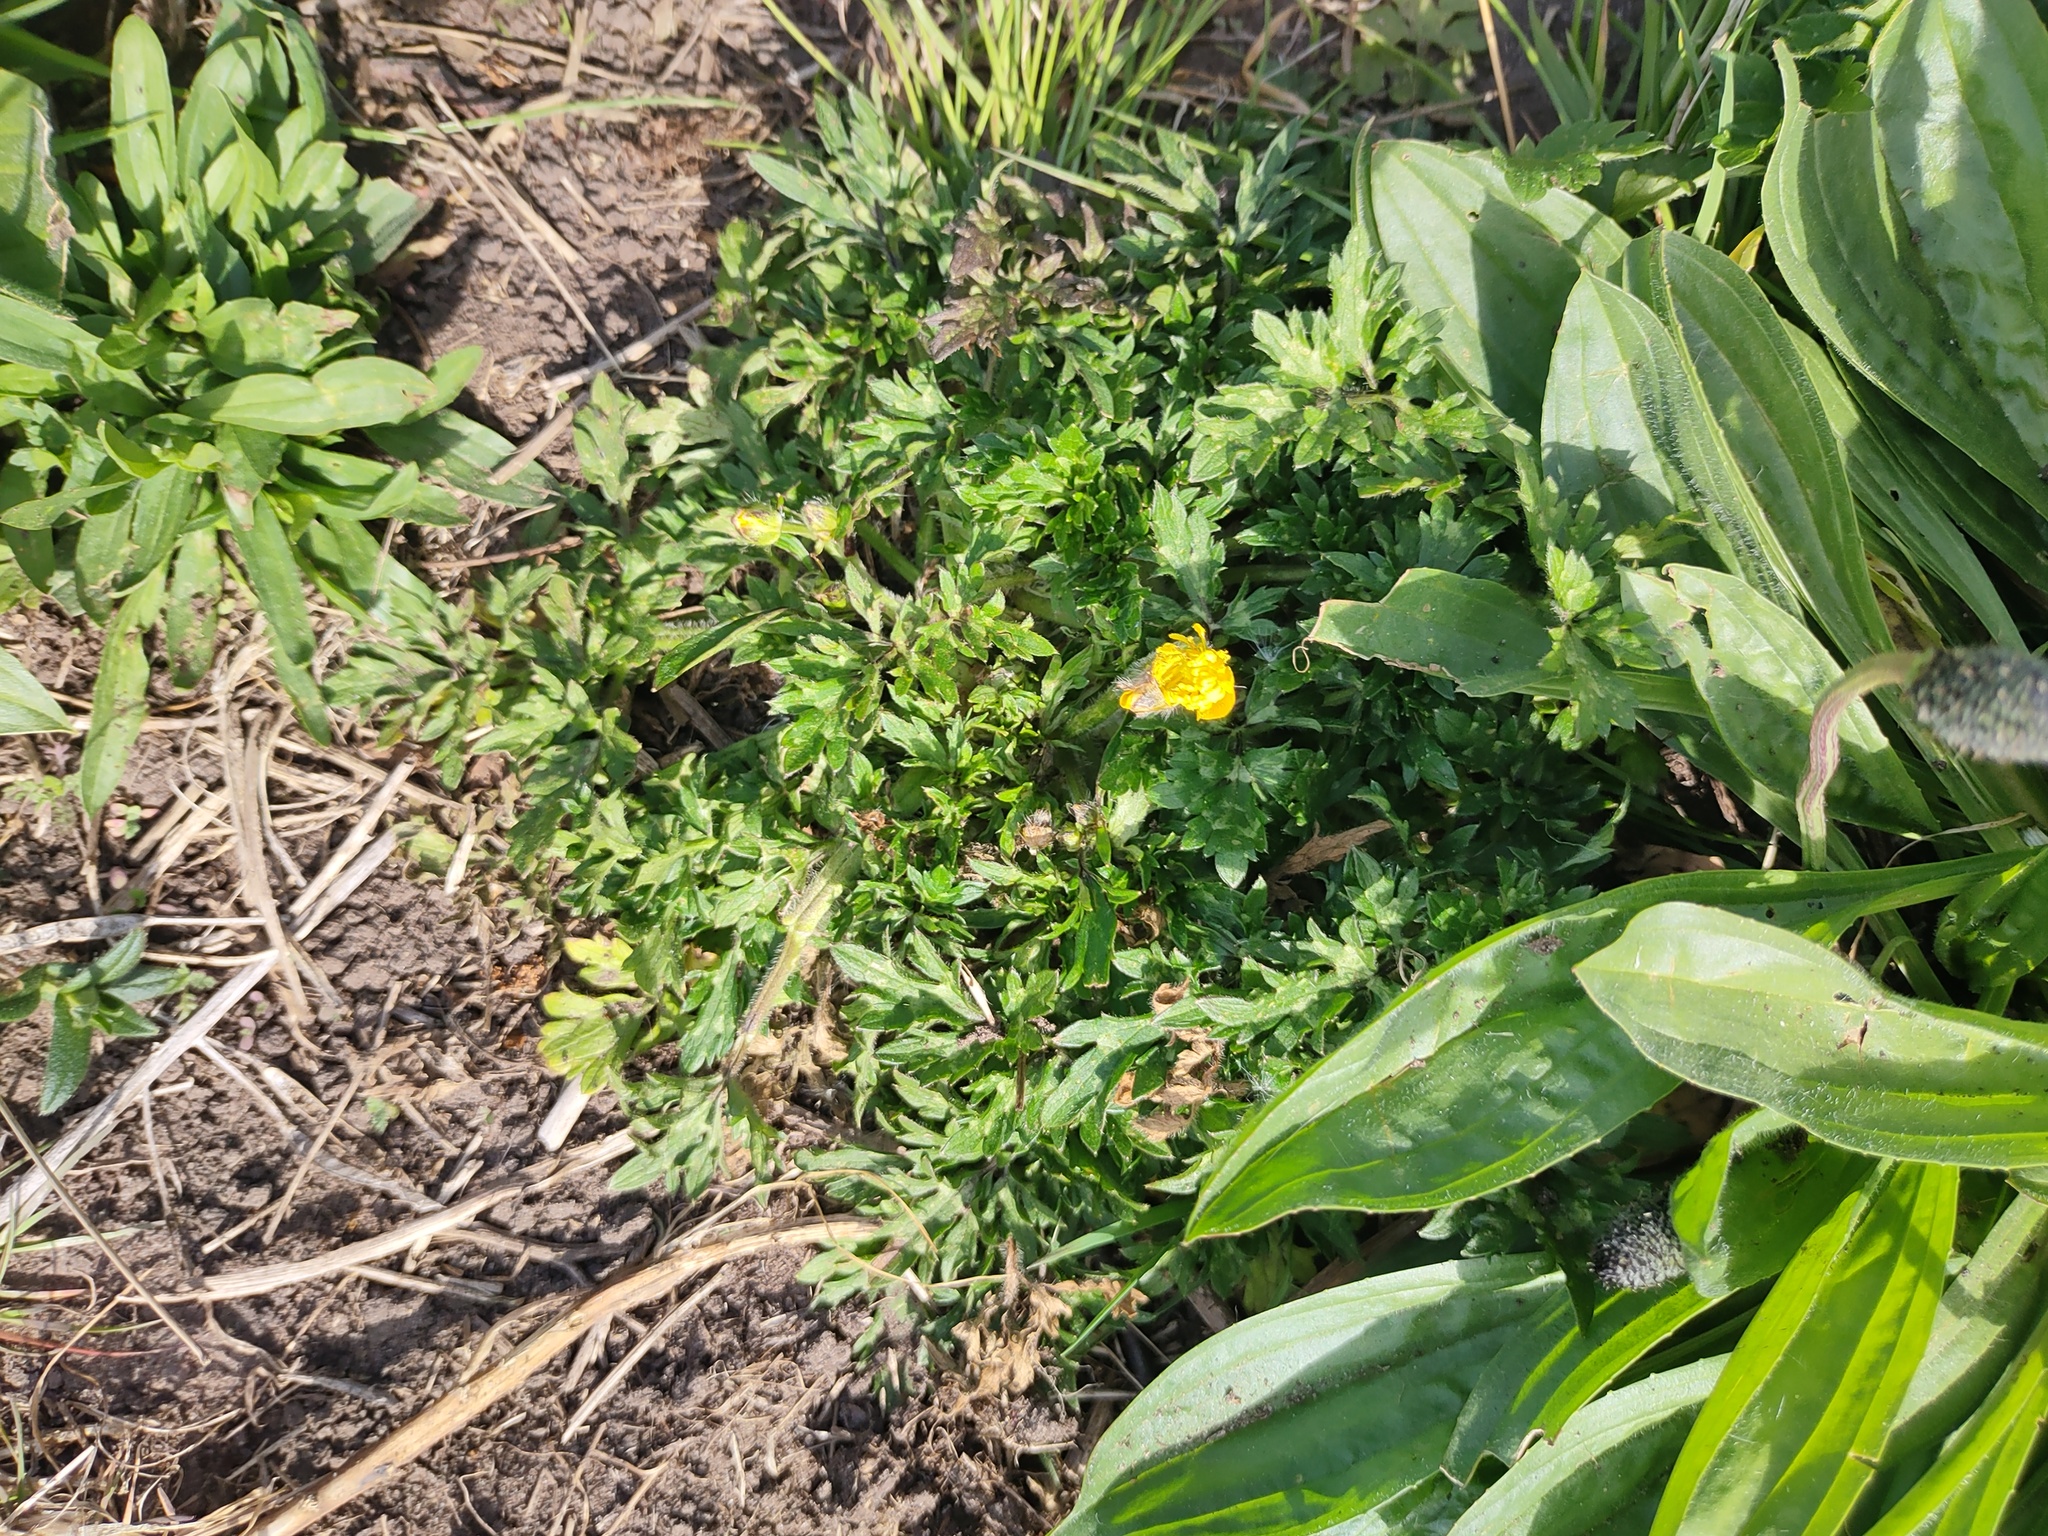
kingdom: Plantae
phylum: Tracheophyta
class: Magnoliopsida
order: Ranunculales
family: Ranunculaceae
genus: Ranunculus
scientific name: Ranunculus repens
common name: Creeping buttercup
